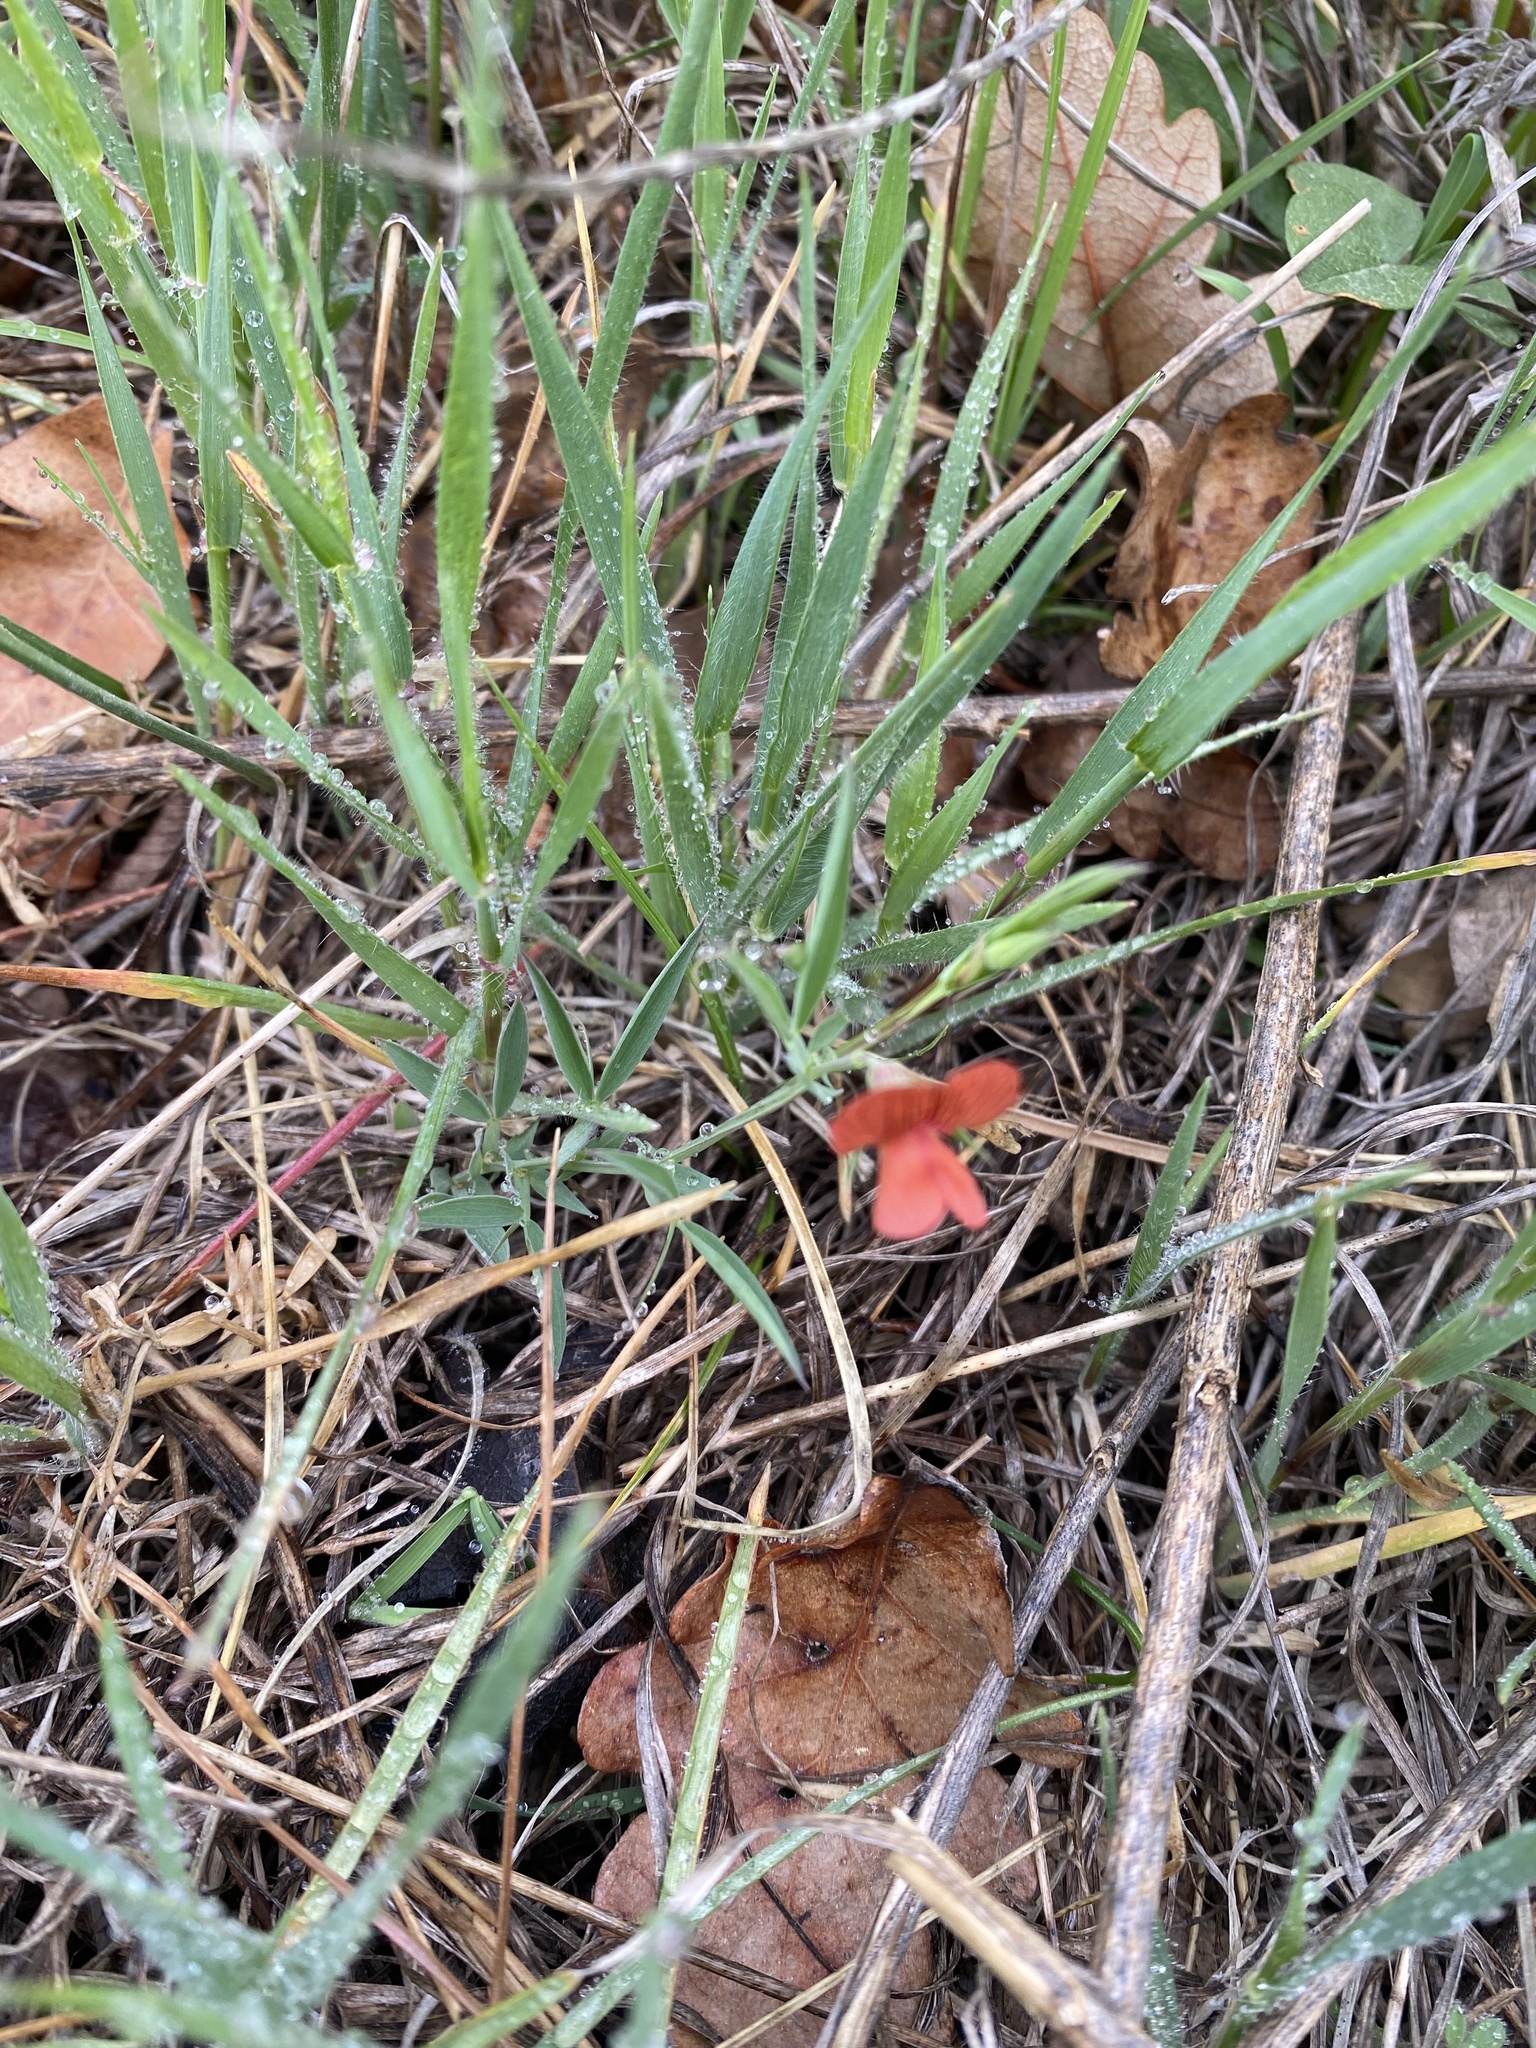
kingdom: Plantae
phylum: Tracheophyta
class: Magnoliopsida
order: Fabales
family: Fabaceae
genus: Lathyrus
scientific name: Lathyrus sphaericus
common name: Grass pea
